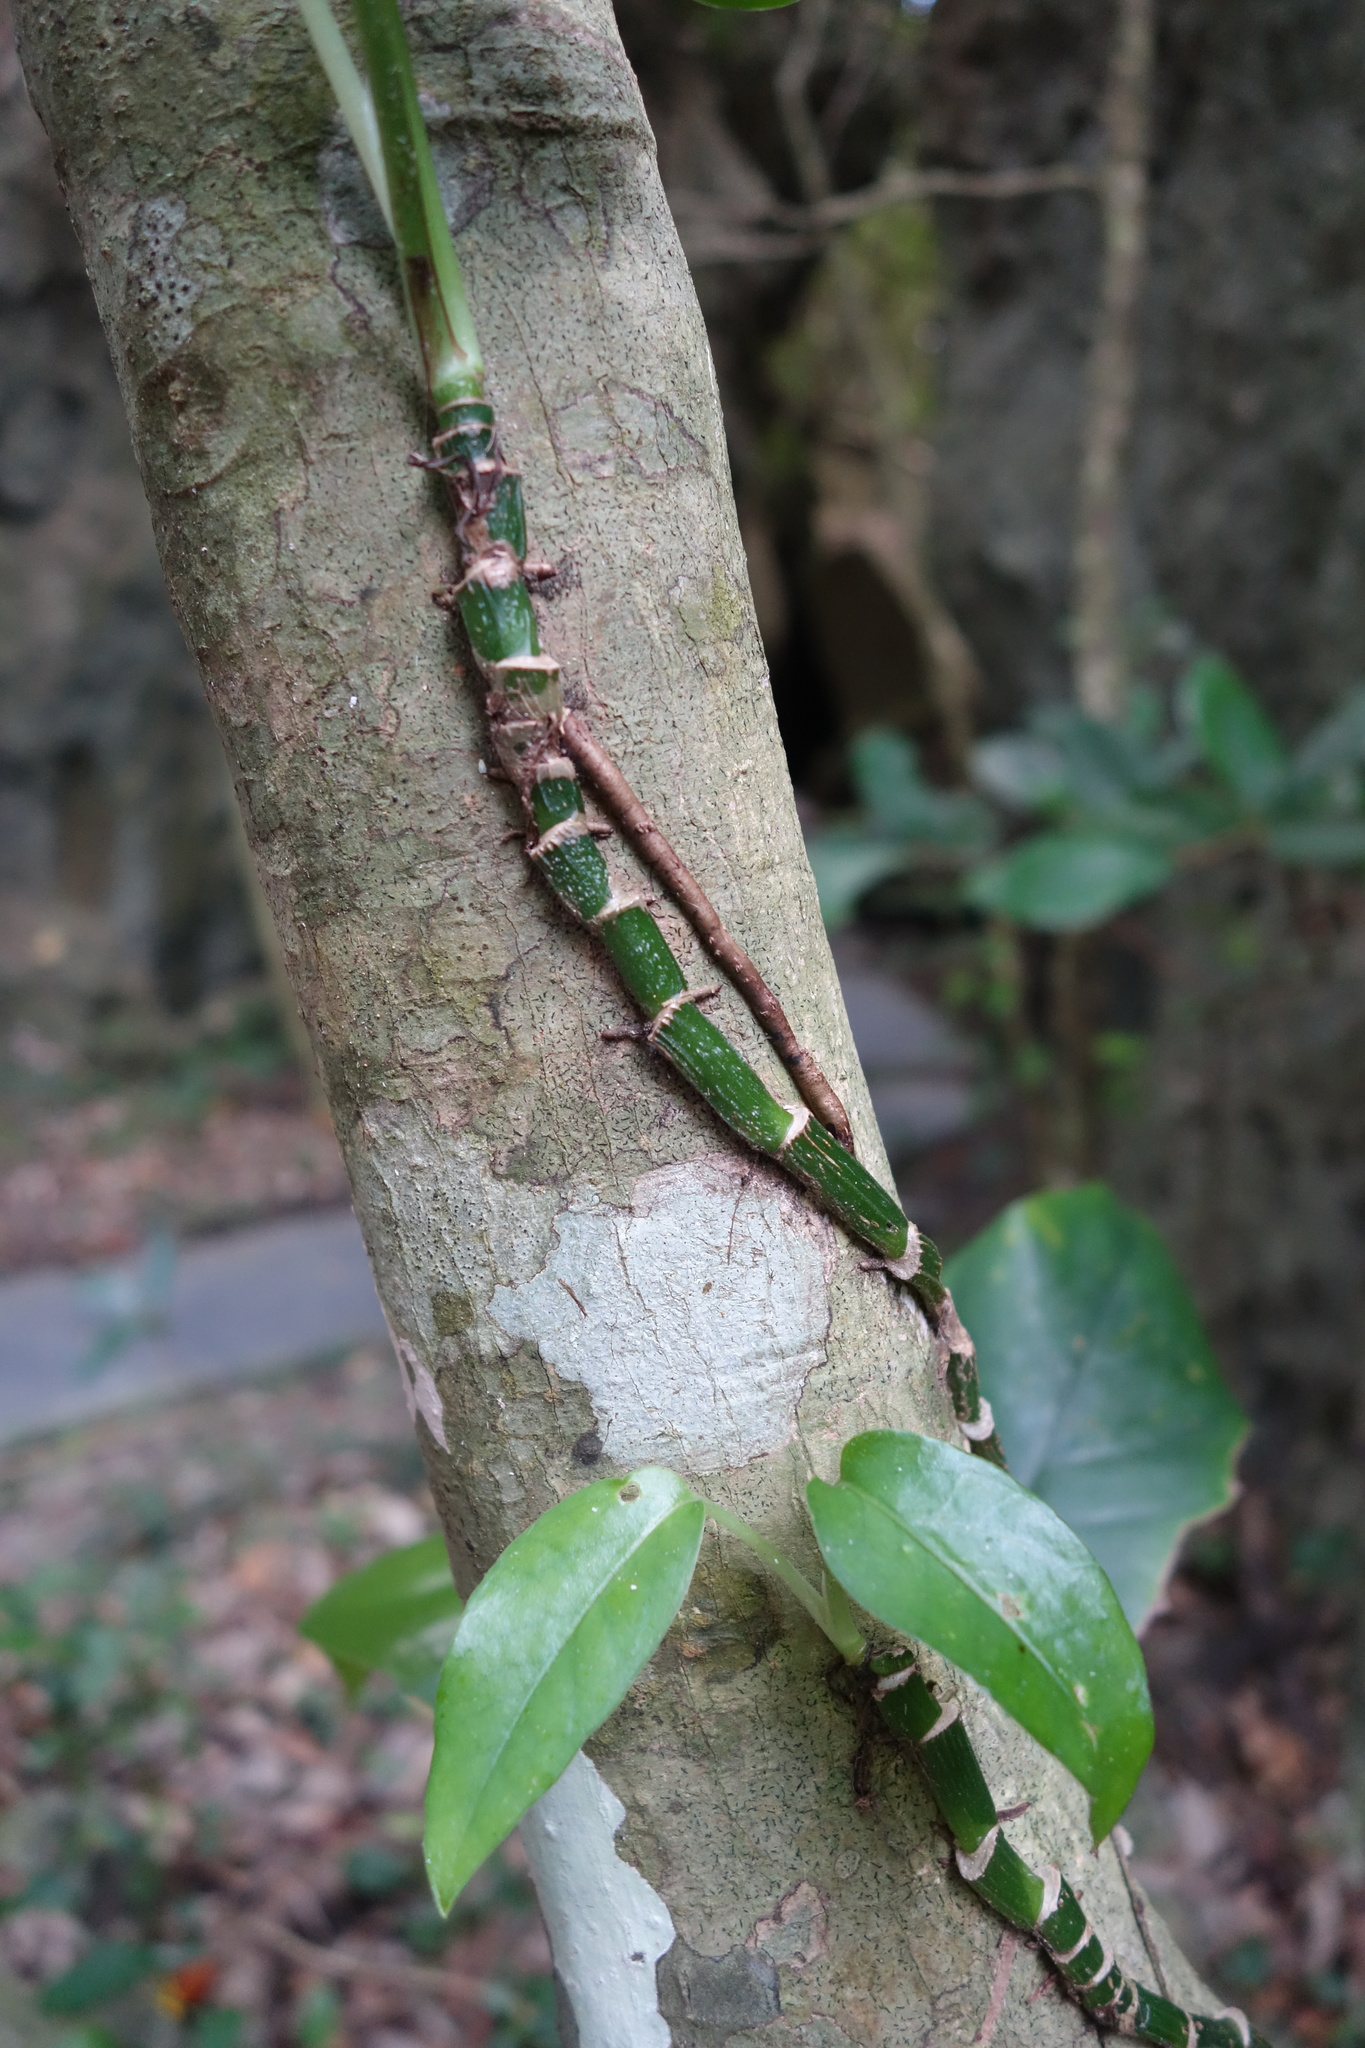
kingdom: Plantae
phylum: Tracheophyta
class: Liliopsida
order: Alismatales
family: Araceae
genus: Epipremnum
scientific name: Epipremnum pinnatum
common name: Centipede tongavine
